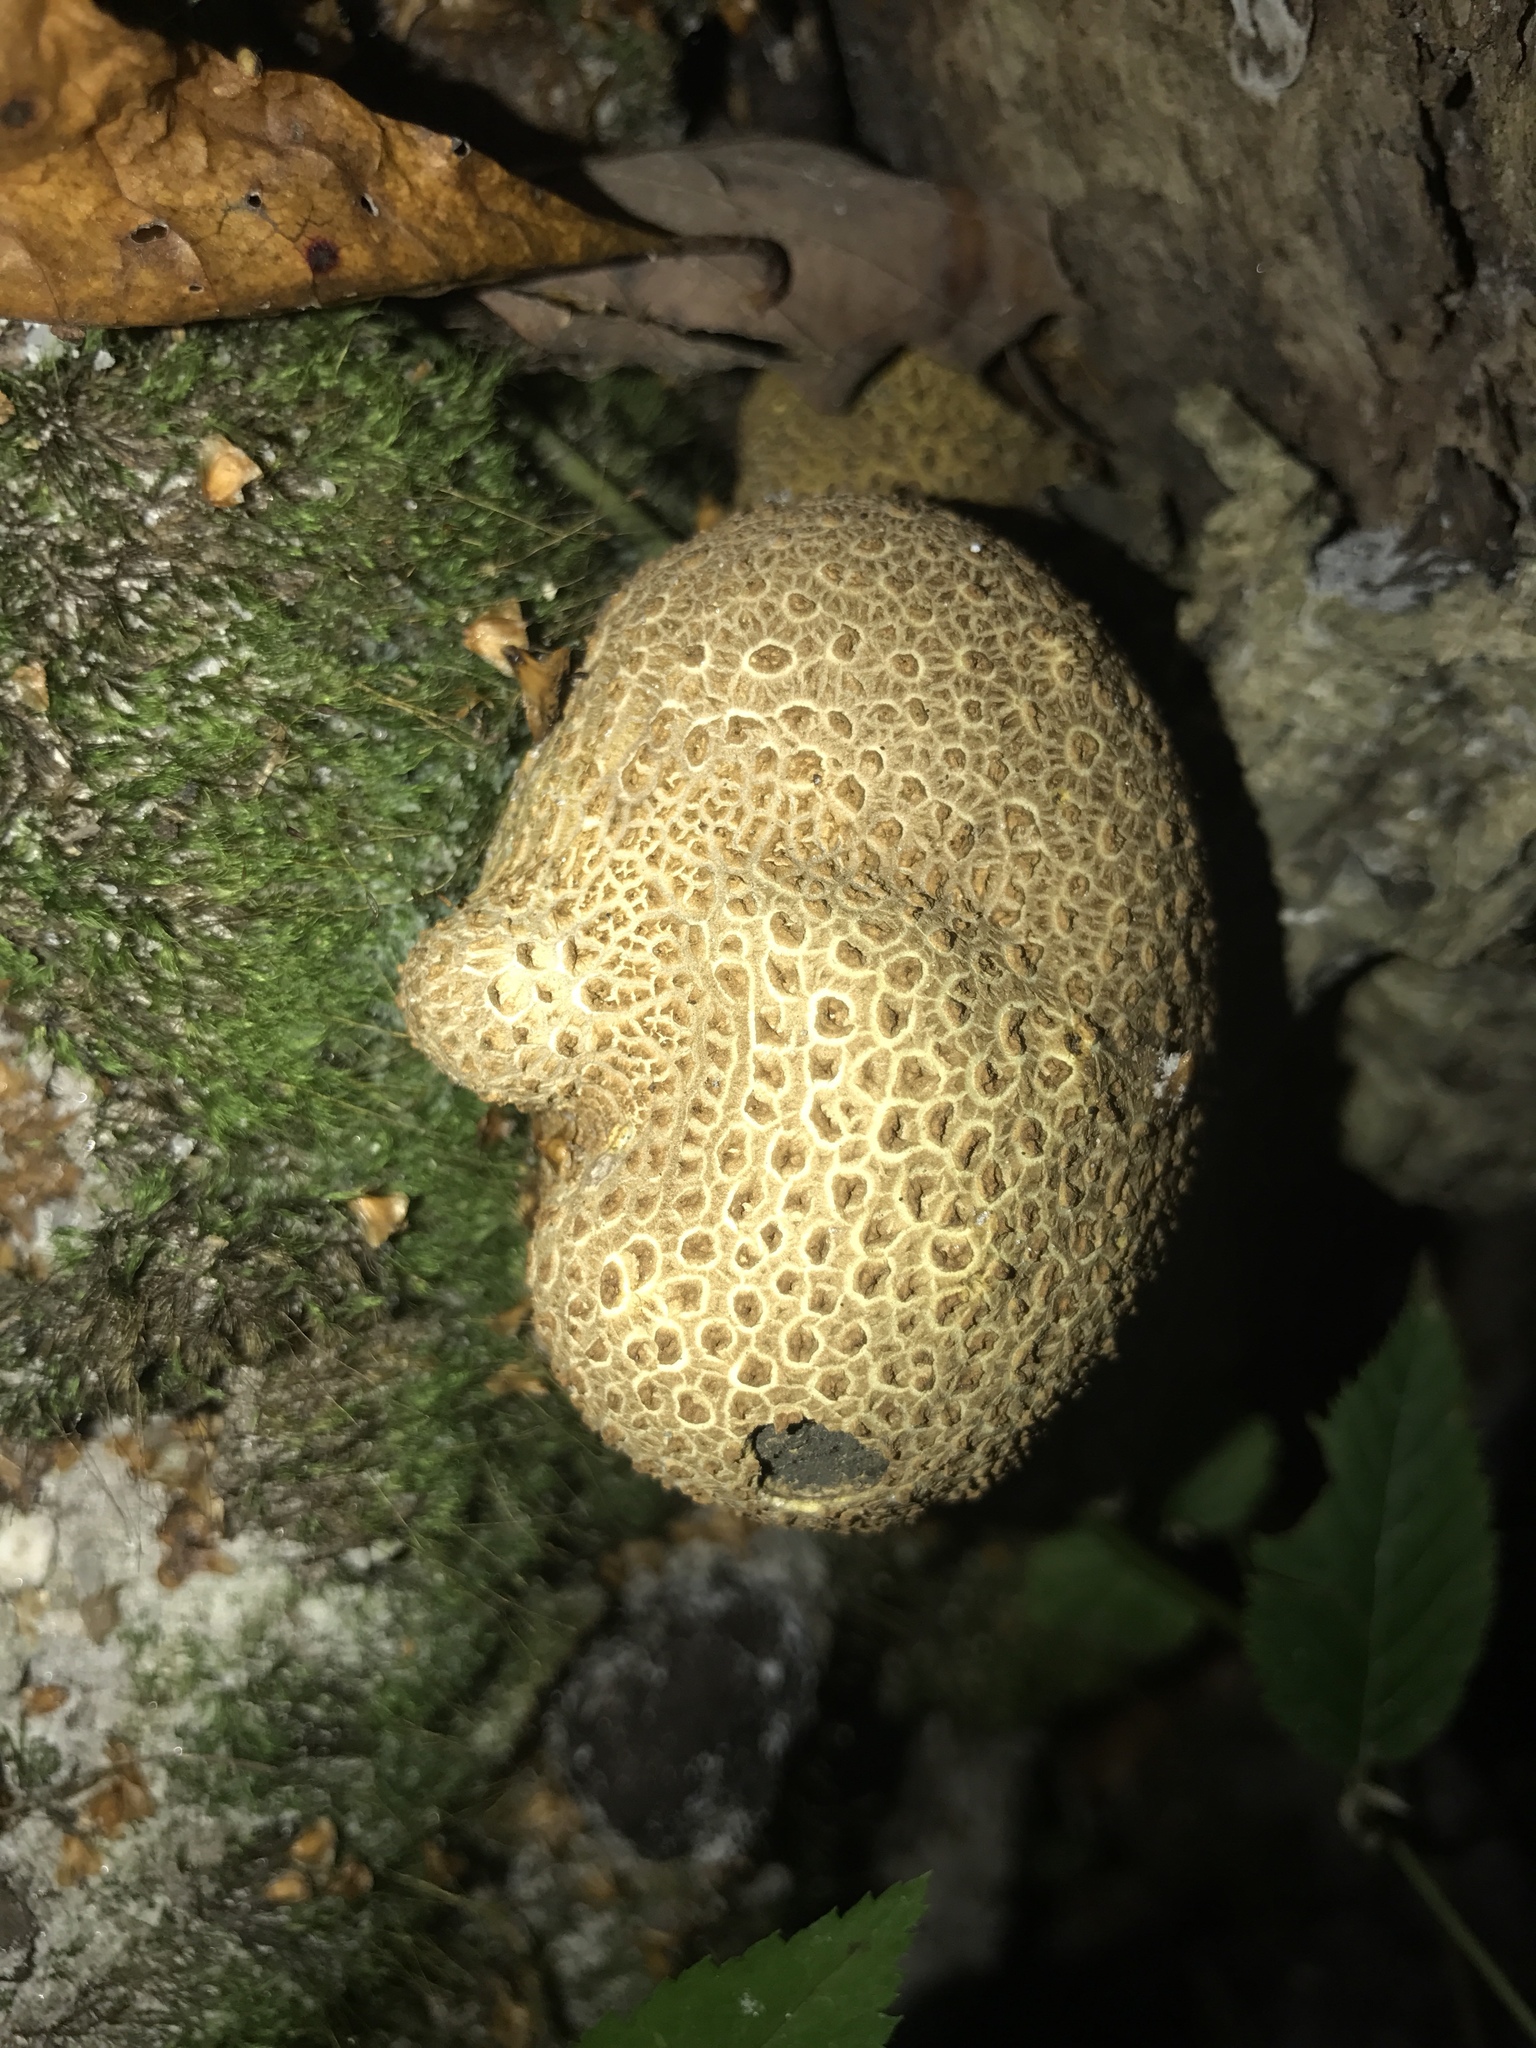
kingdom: Fungi
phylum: Basidiomycota
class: Agaricomycetes
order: Boletales
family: Sclerodermataceae
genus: Scleroderma
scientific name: Scleroderma citrinum
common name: Common earthball
